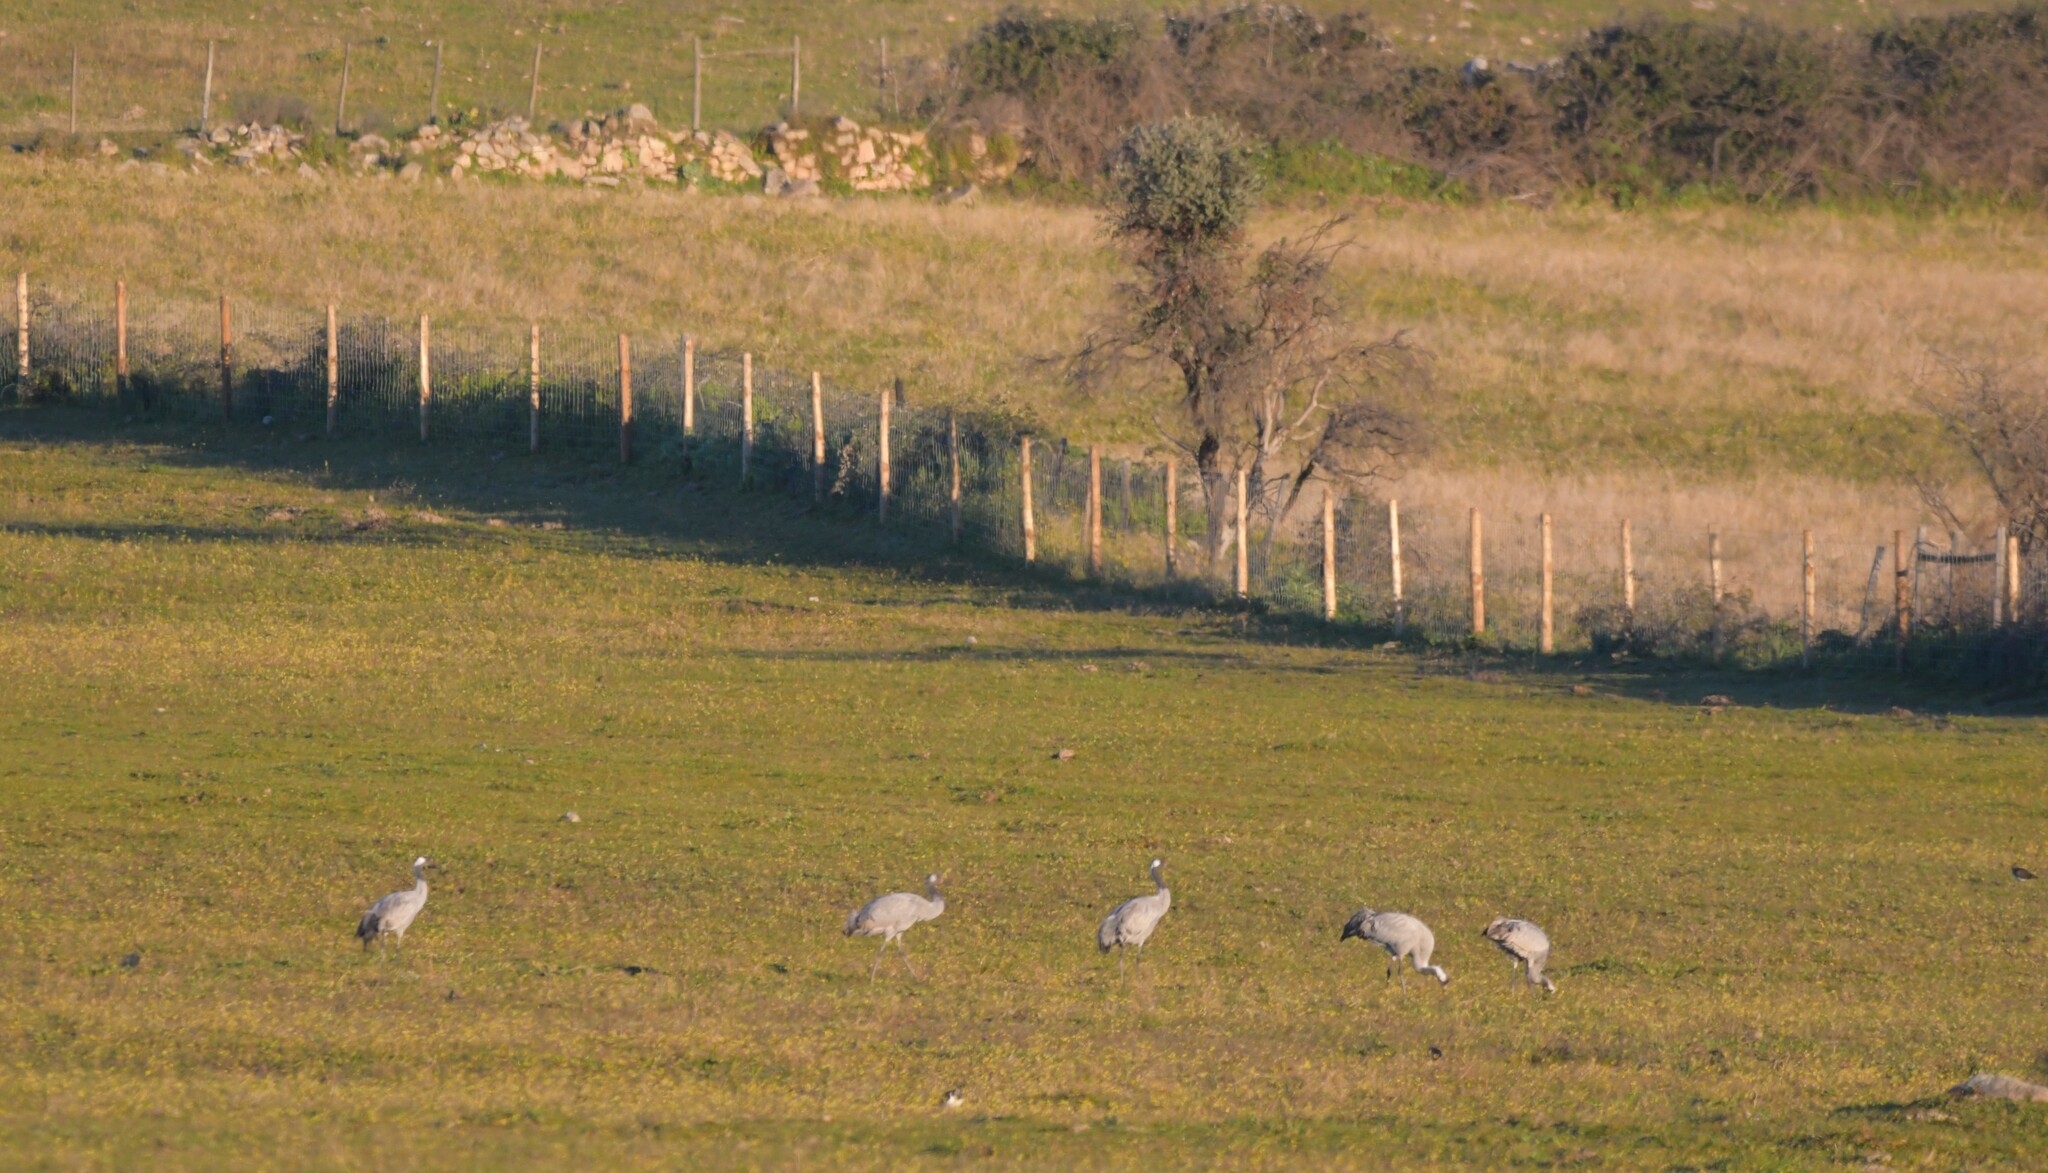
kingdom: Animalia
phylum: Chordata
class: Aves
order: Gruiformes
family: Gruidae
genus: Grus
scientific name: Grus grus
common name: Common crane
